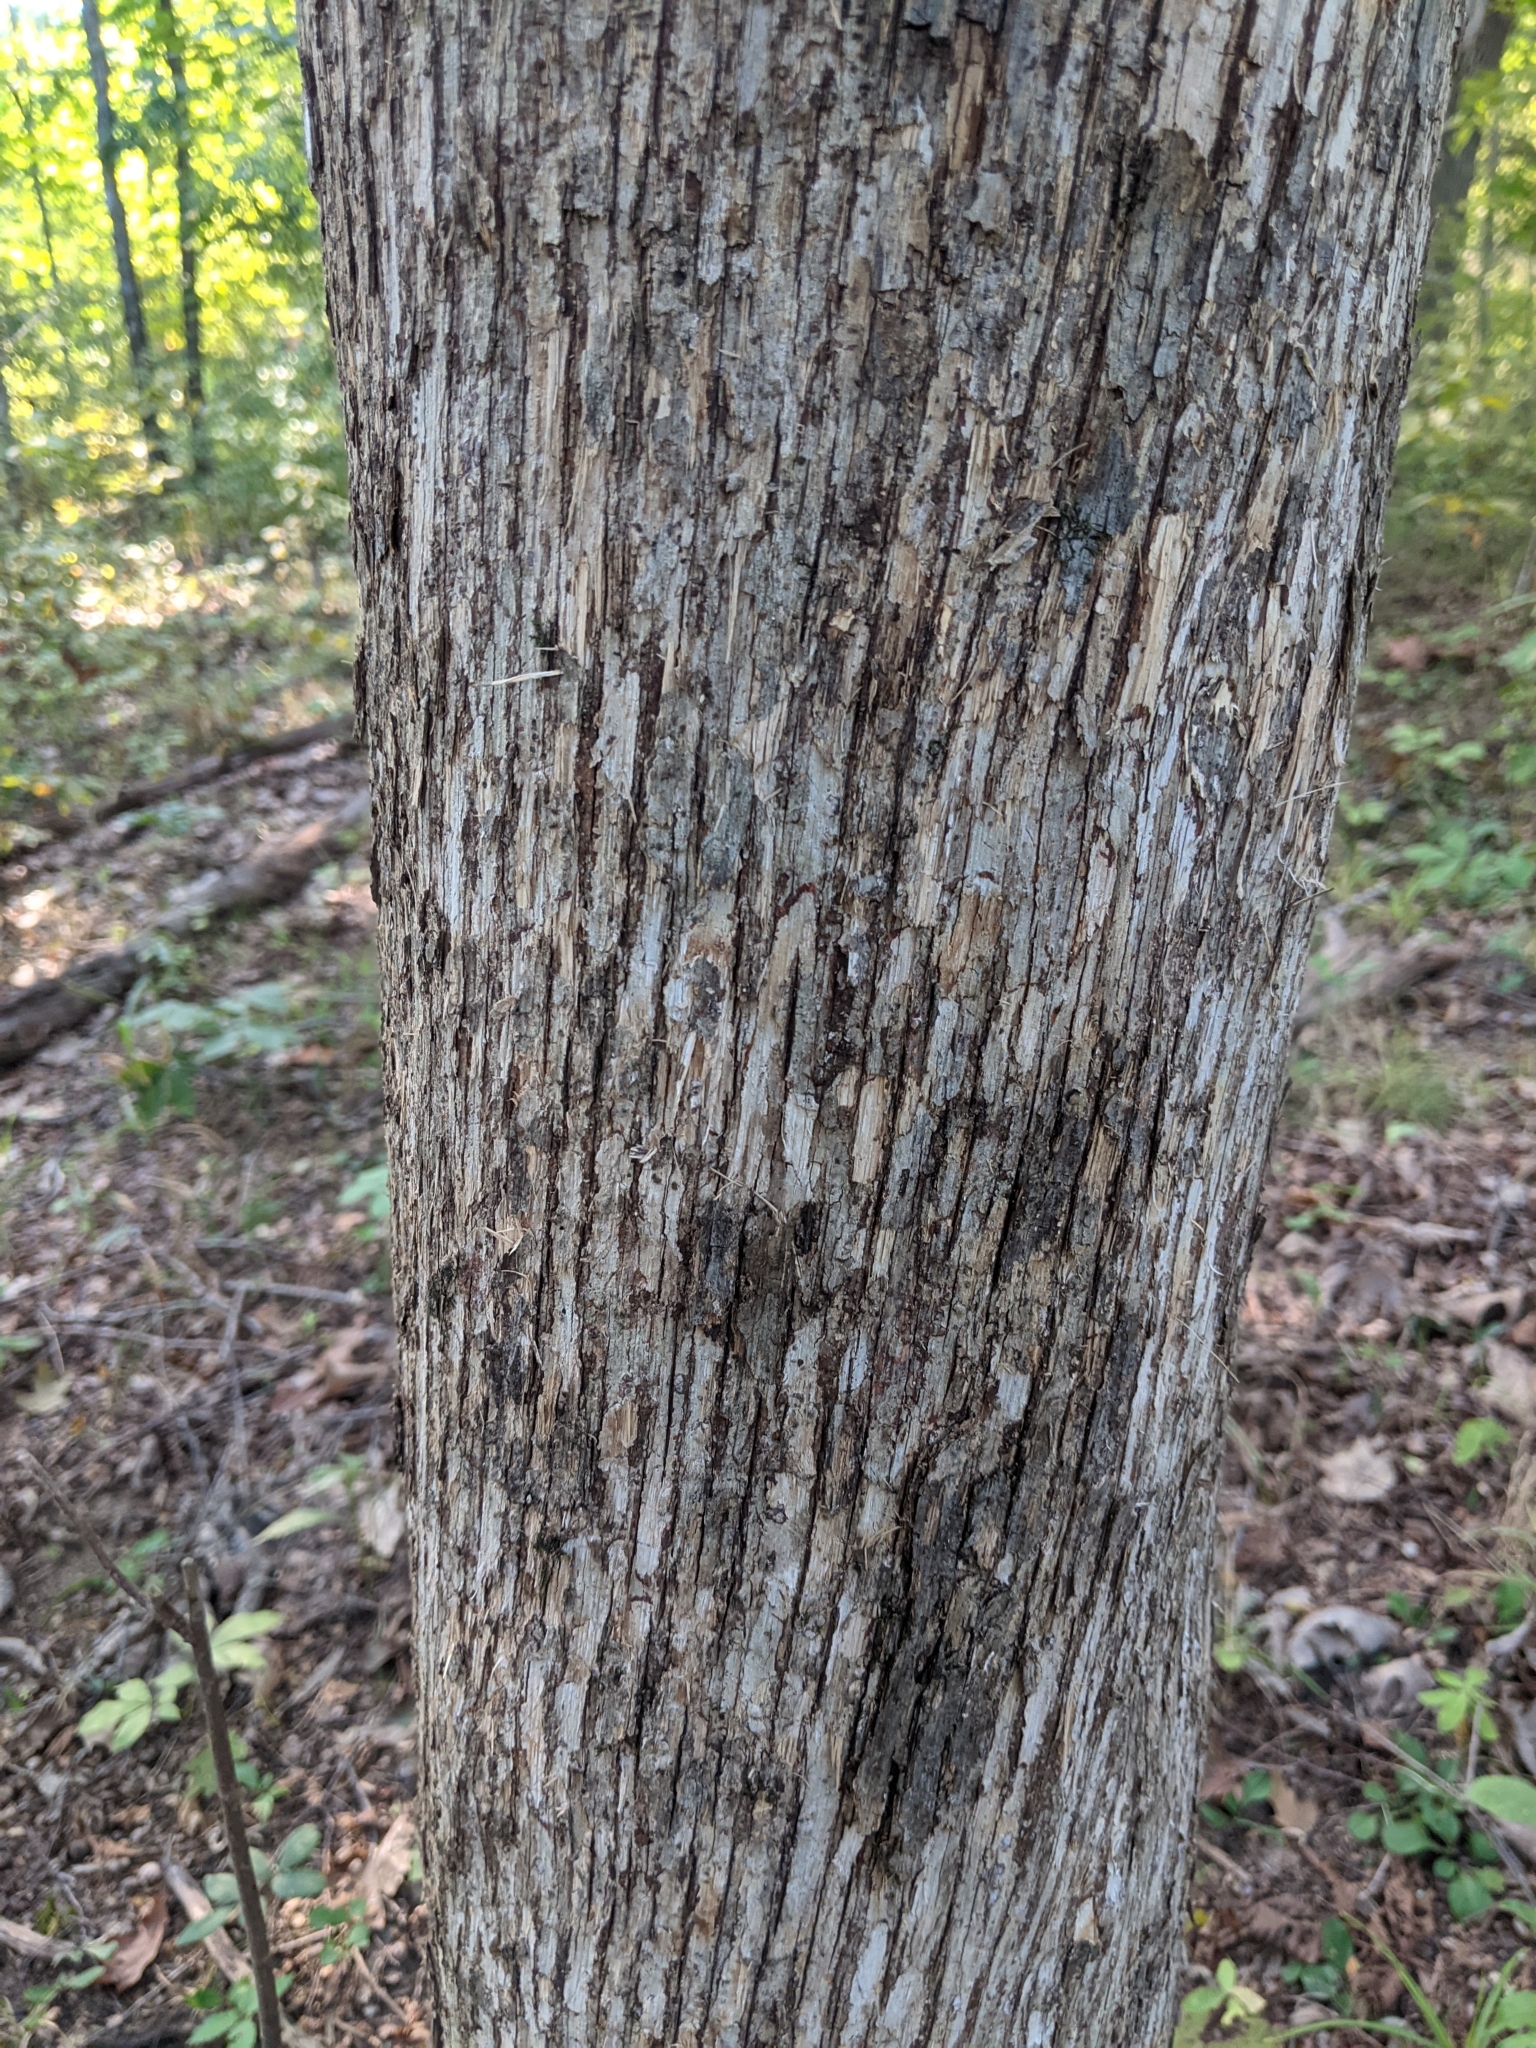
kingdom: Plantae
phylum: Tracheophyta
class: Magnoliopsida
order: Fagales
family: Betulaceae
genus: Ostrya
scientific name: Ostrya virginiana
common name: Ironwood
